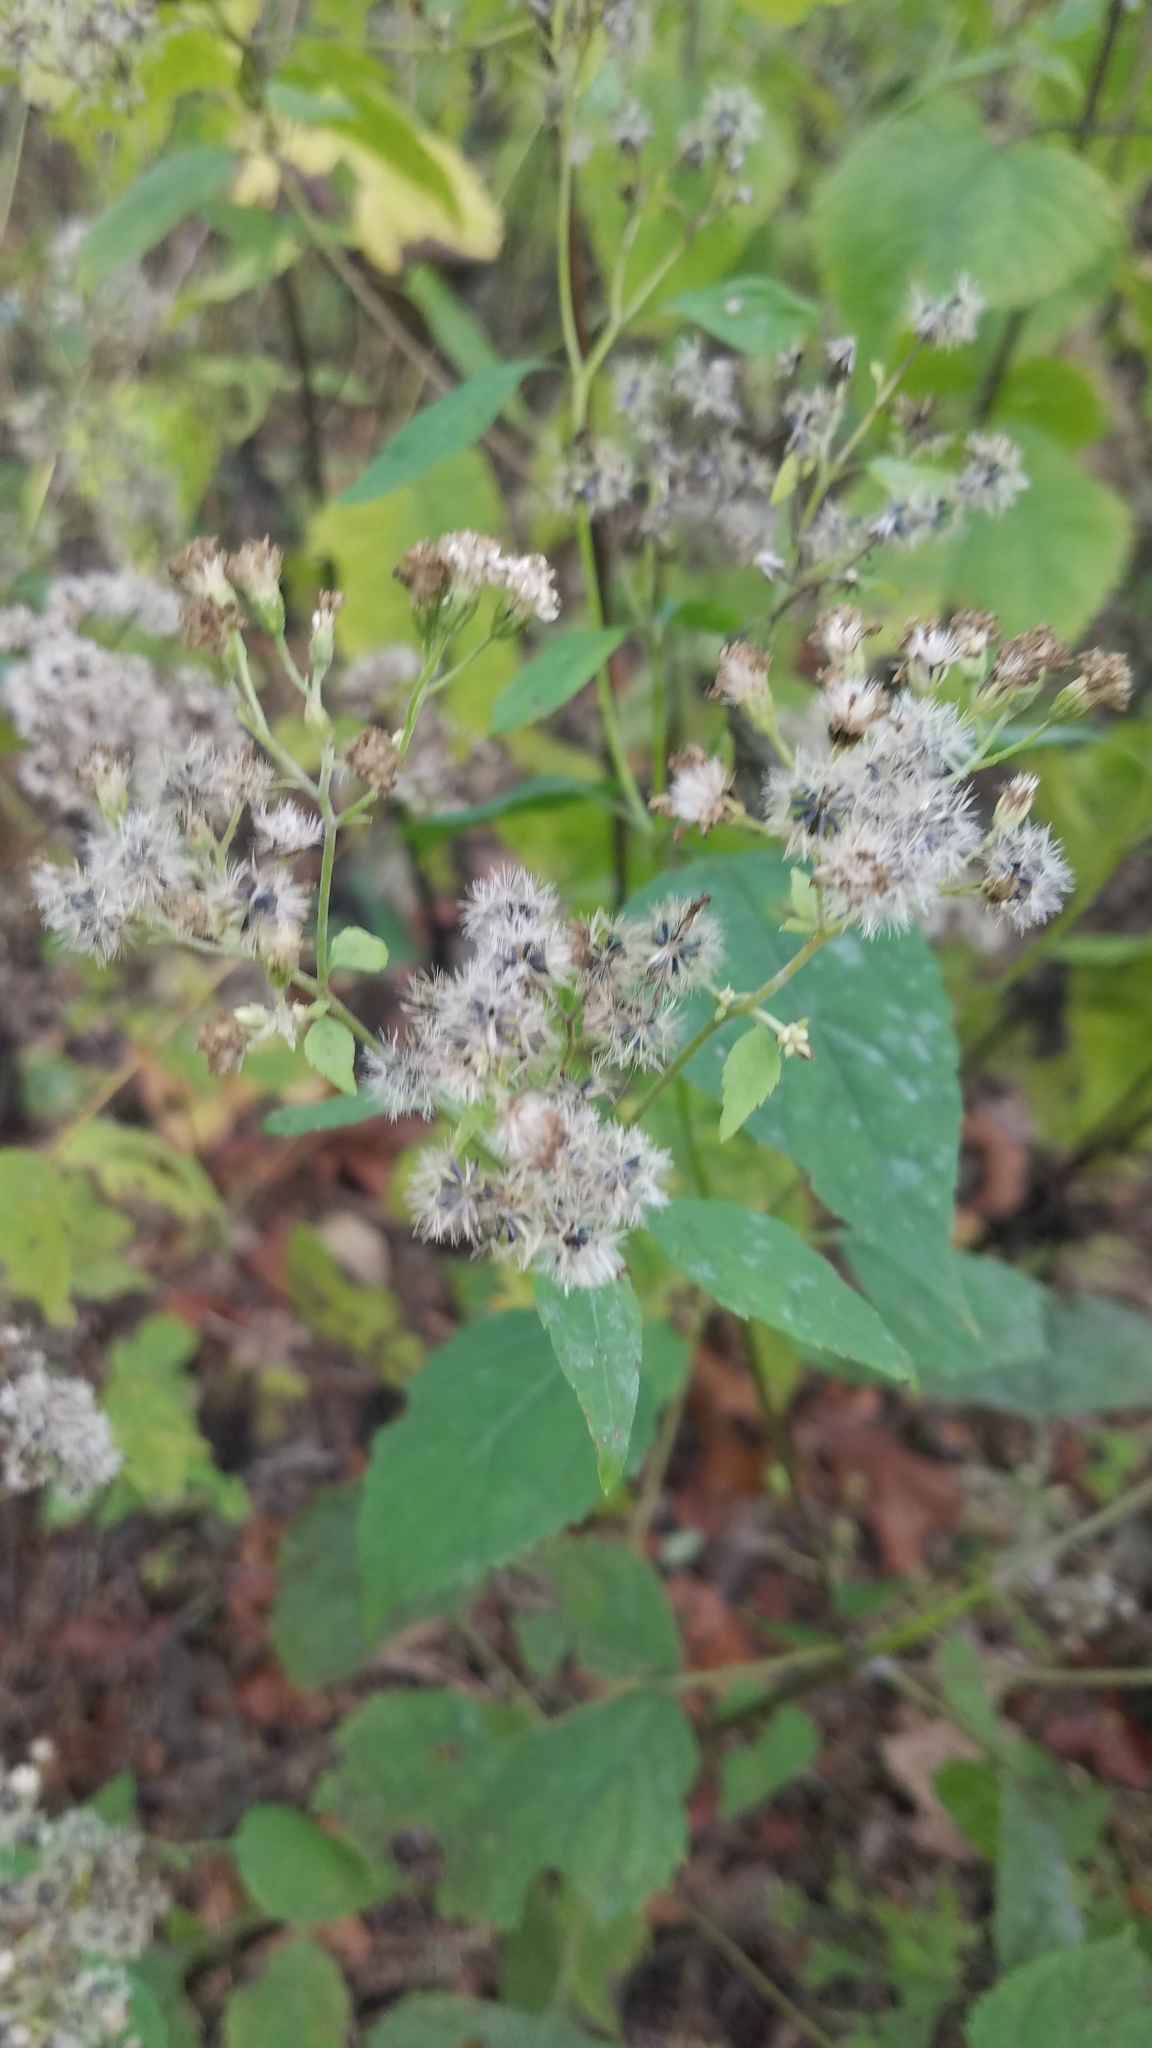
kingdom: Plantae
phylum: Tracheophyta
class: Magnoliopsida
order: Asterales
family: Asteraceae
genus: Ageratina
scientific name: Ageratina altissima
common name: White snakeroot
